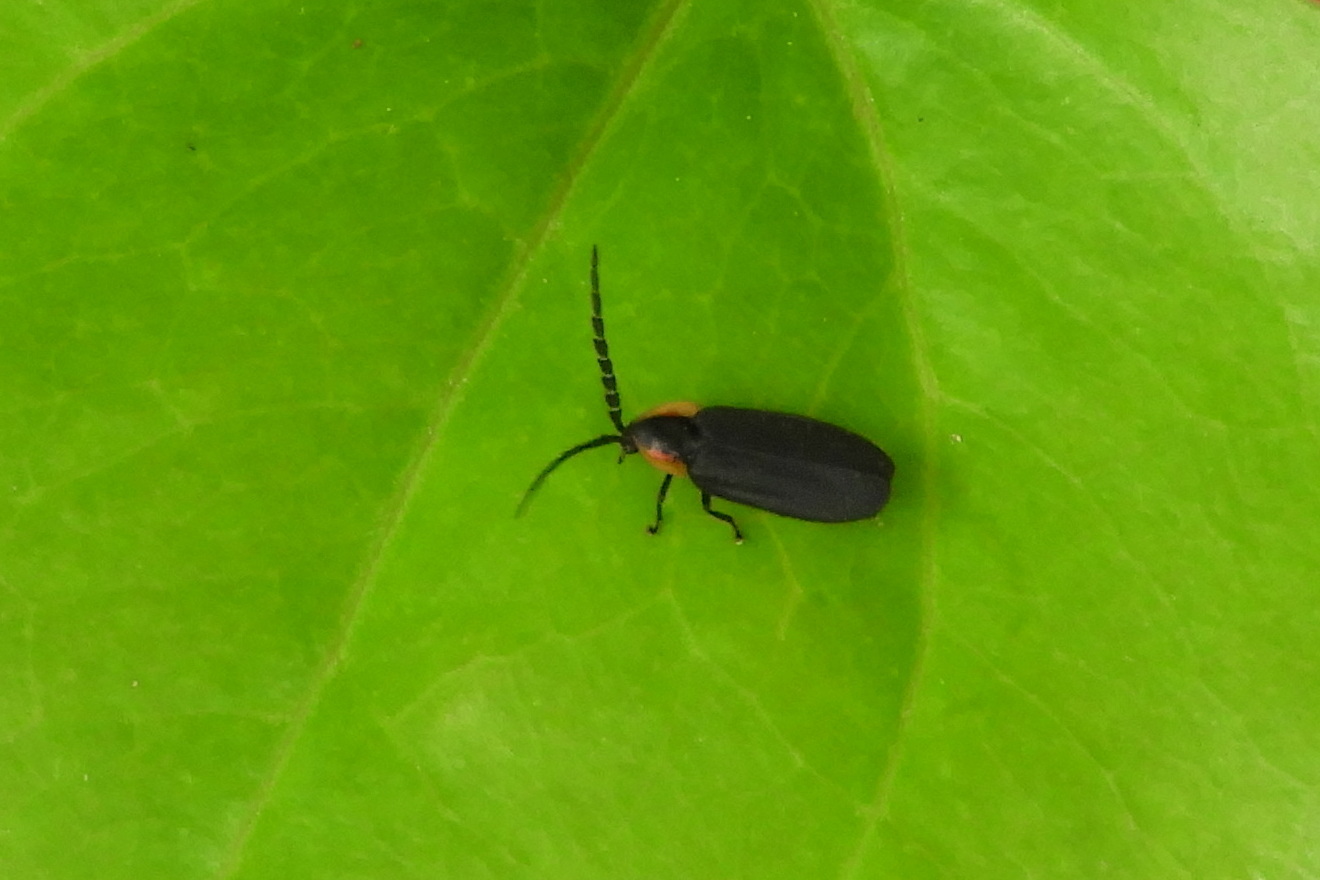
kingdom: Animalia
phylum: Arthropoda
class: Insecta
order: Coleoptera
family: Lampyridae
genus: Lucidota
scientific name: Lucidota atra
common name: Black firefly
